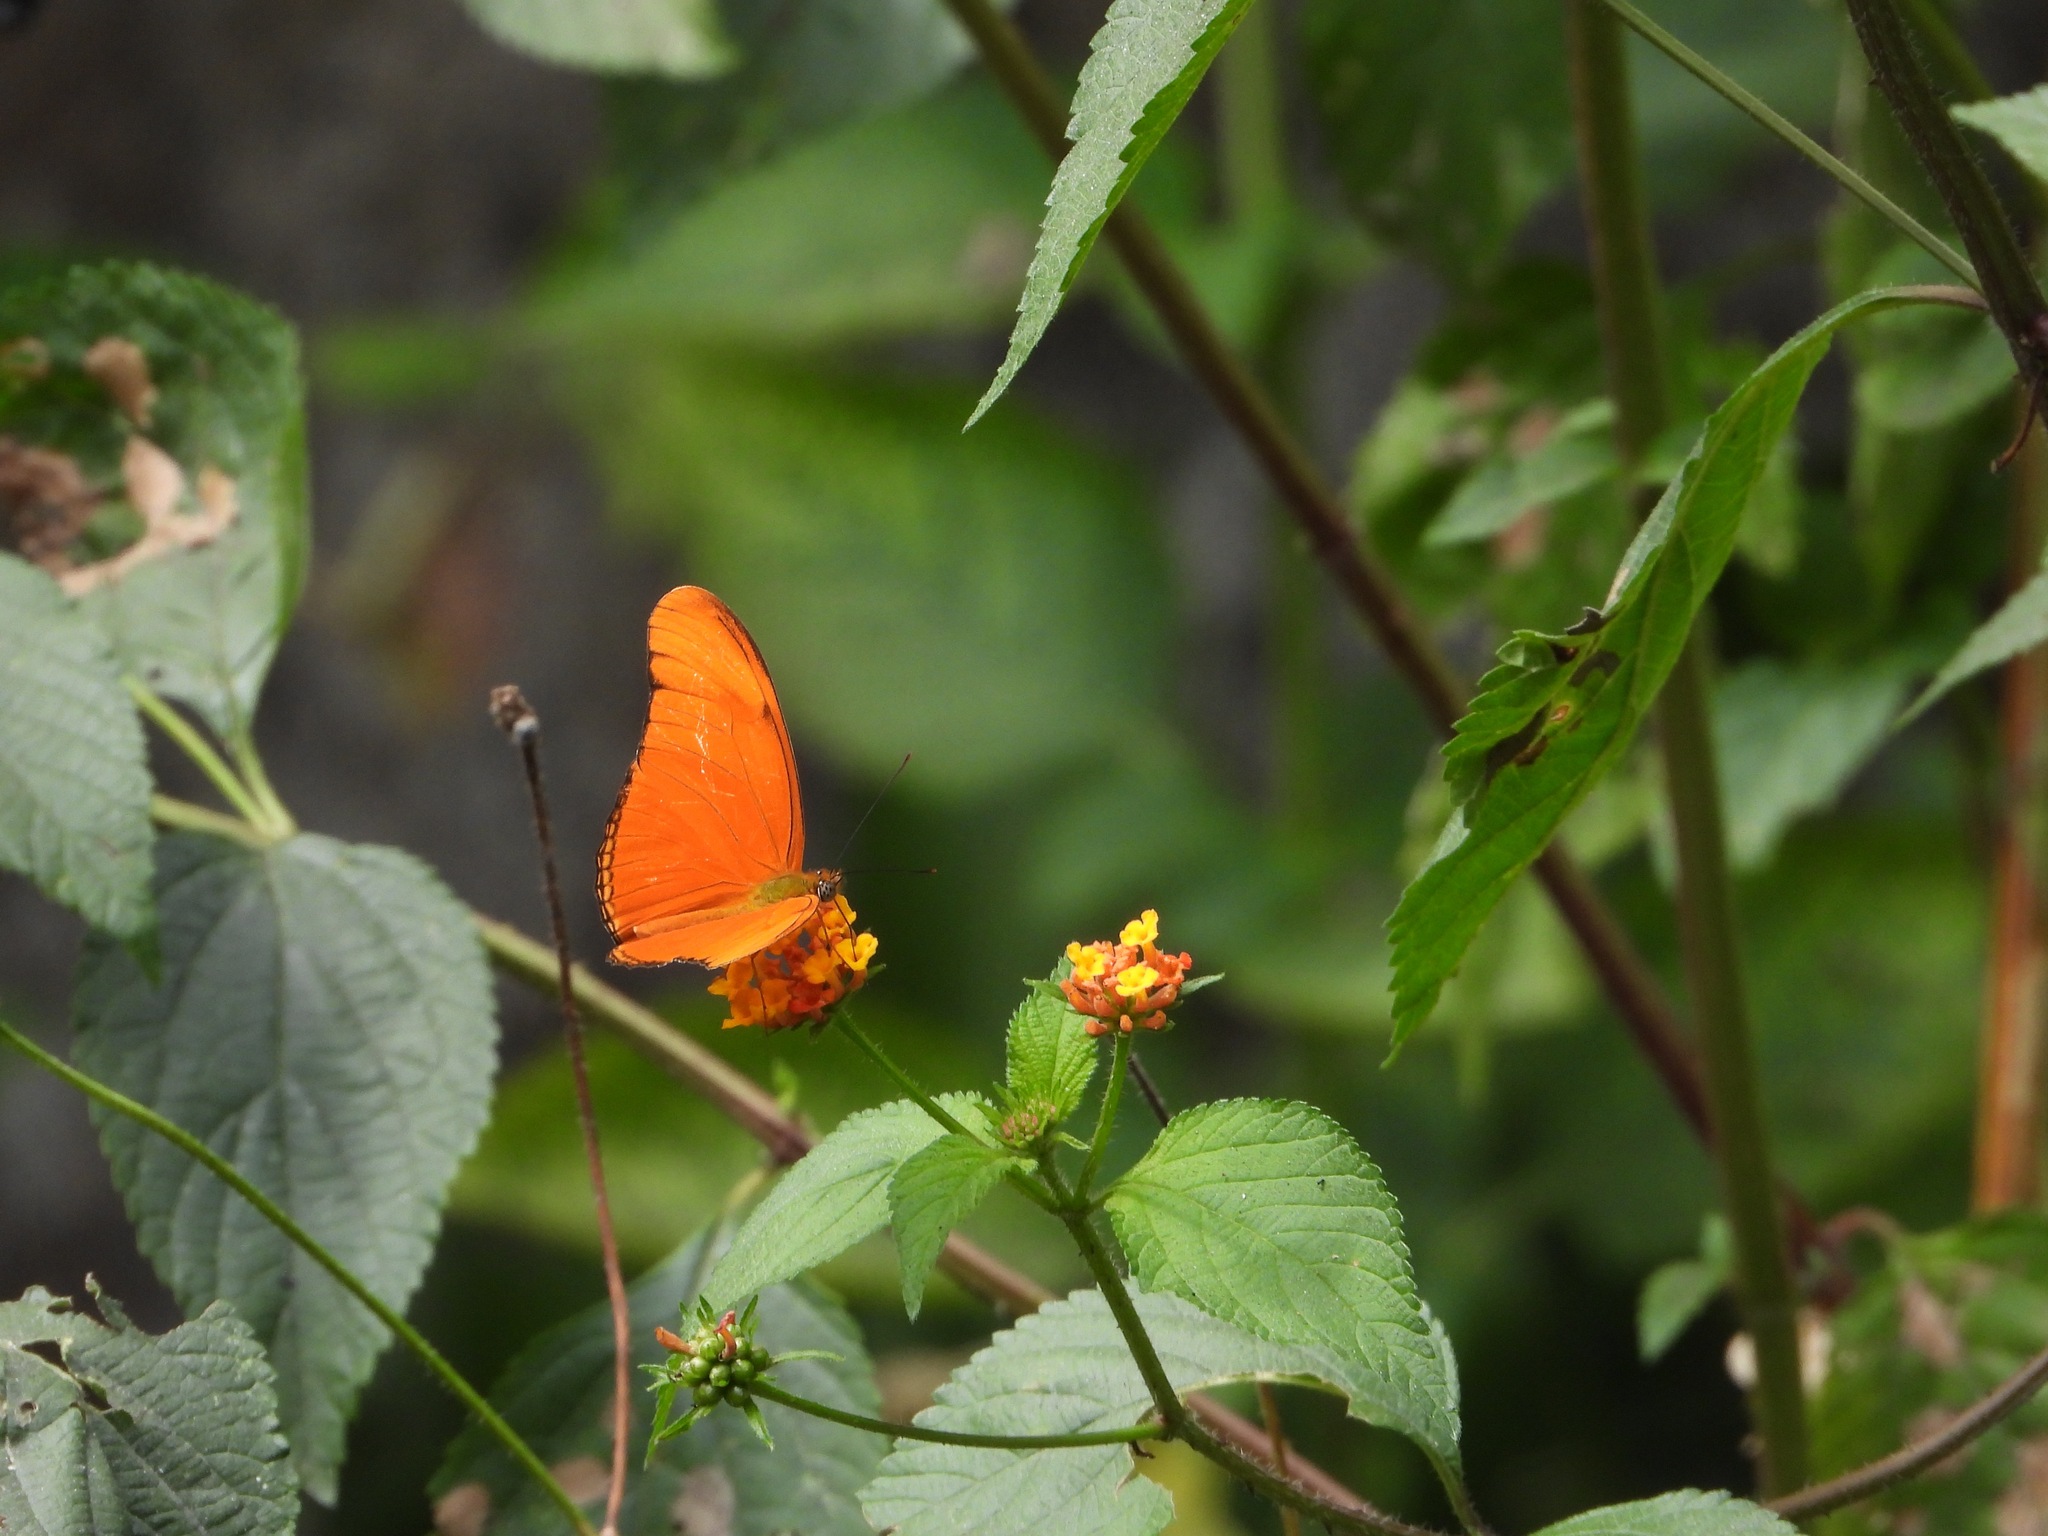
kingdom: Animalia
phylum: Arthropoda
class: Insecta
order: Lepidoptera
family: Nymphalidae
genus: Dryas
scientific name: Dryas iulia
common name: Flambeau
